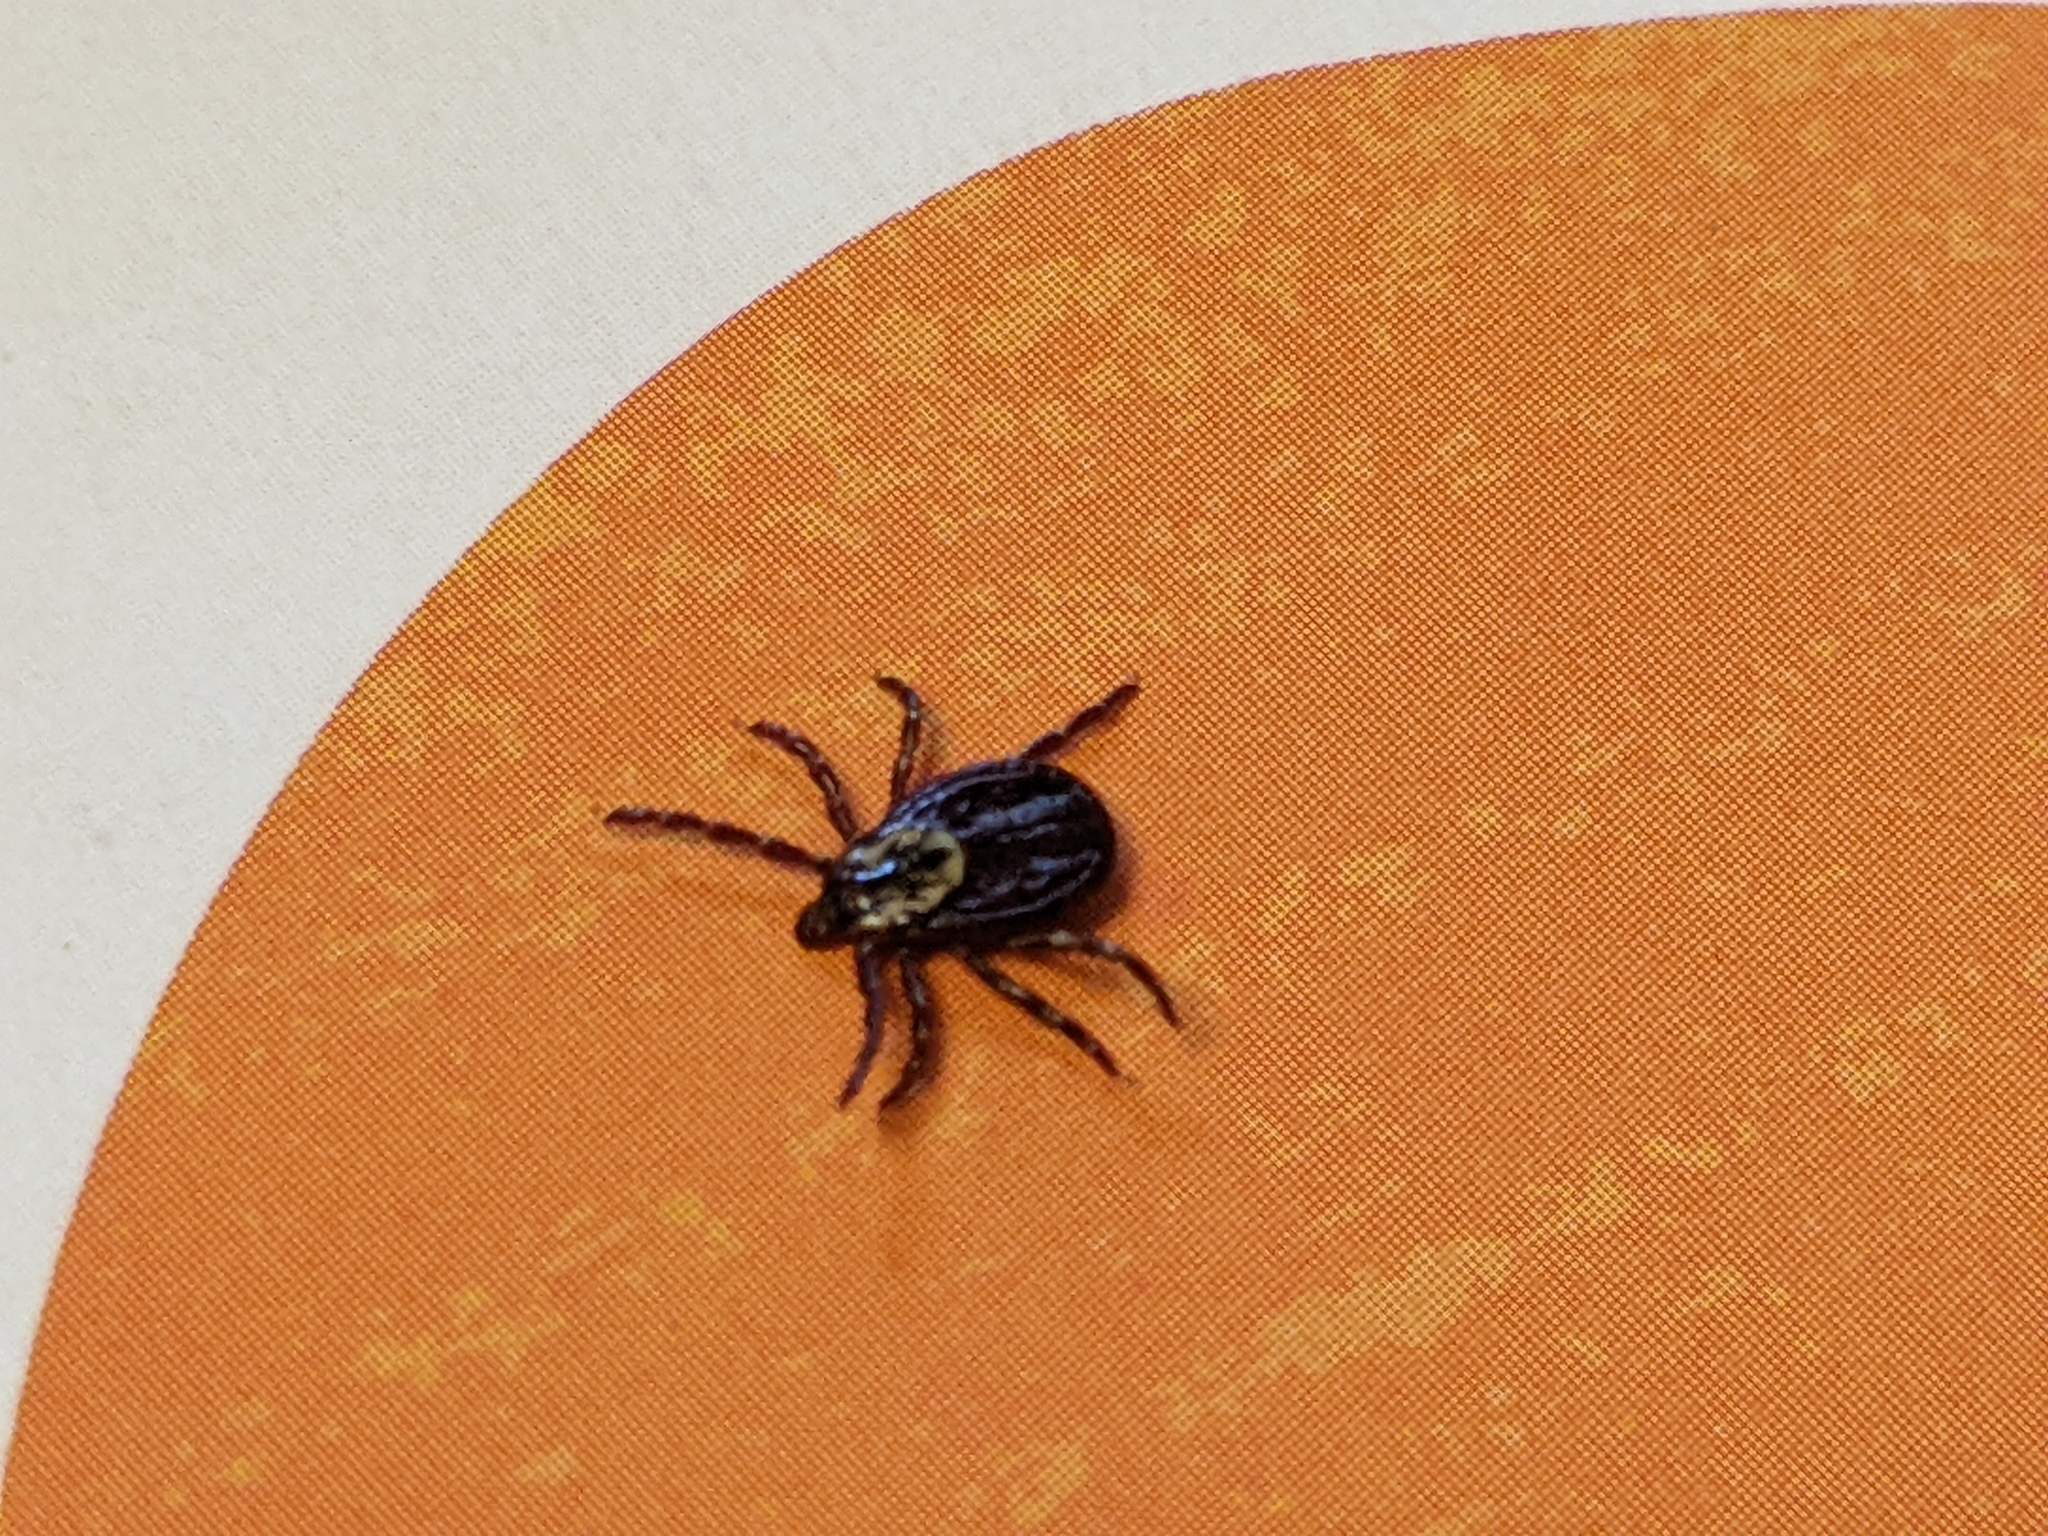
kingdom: Animalia
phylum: Arthropoda
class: Arachnida
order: Ixodida
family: Ixodidae
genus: Dermacentor
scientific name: Dermacentor variabilis
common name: American dog tick
